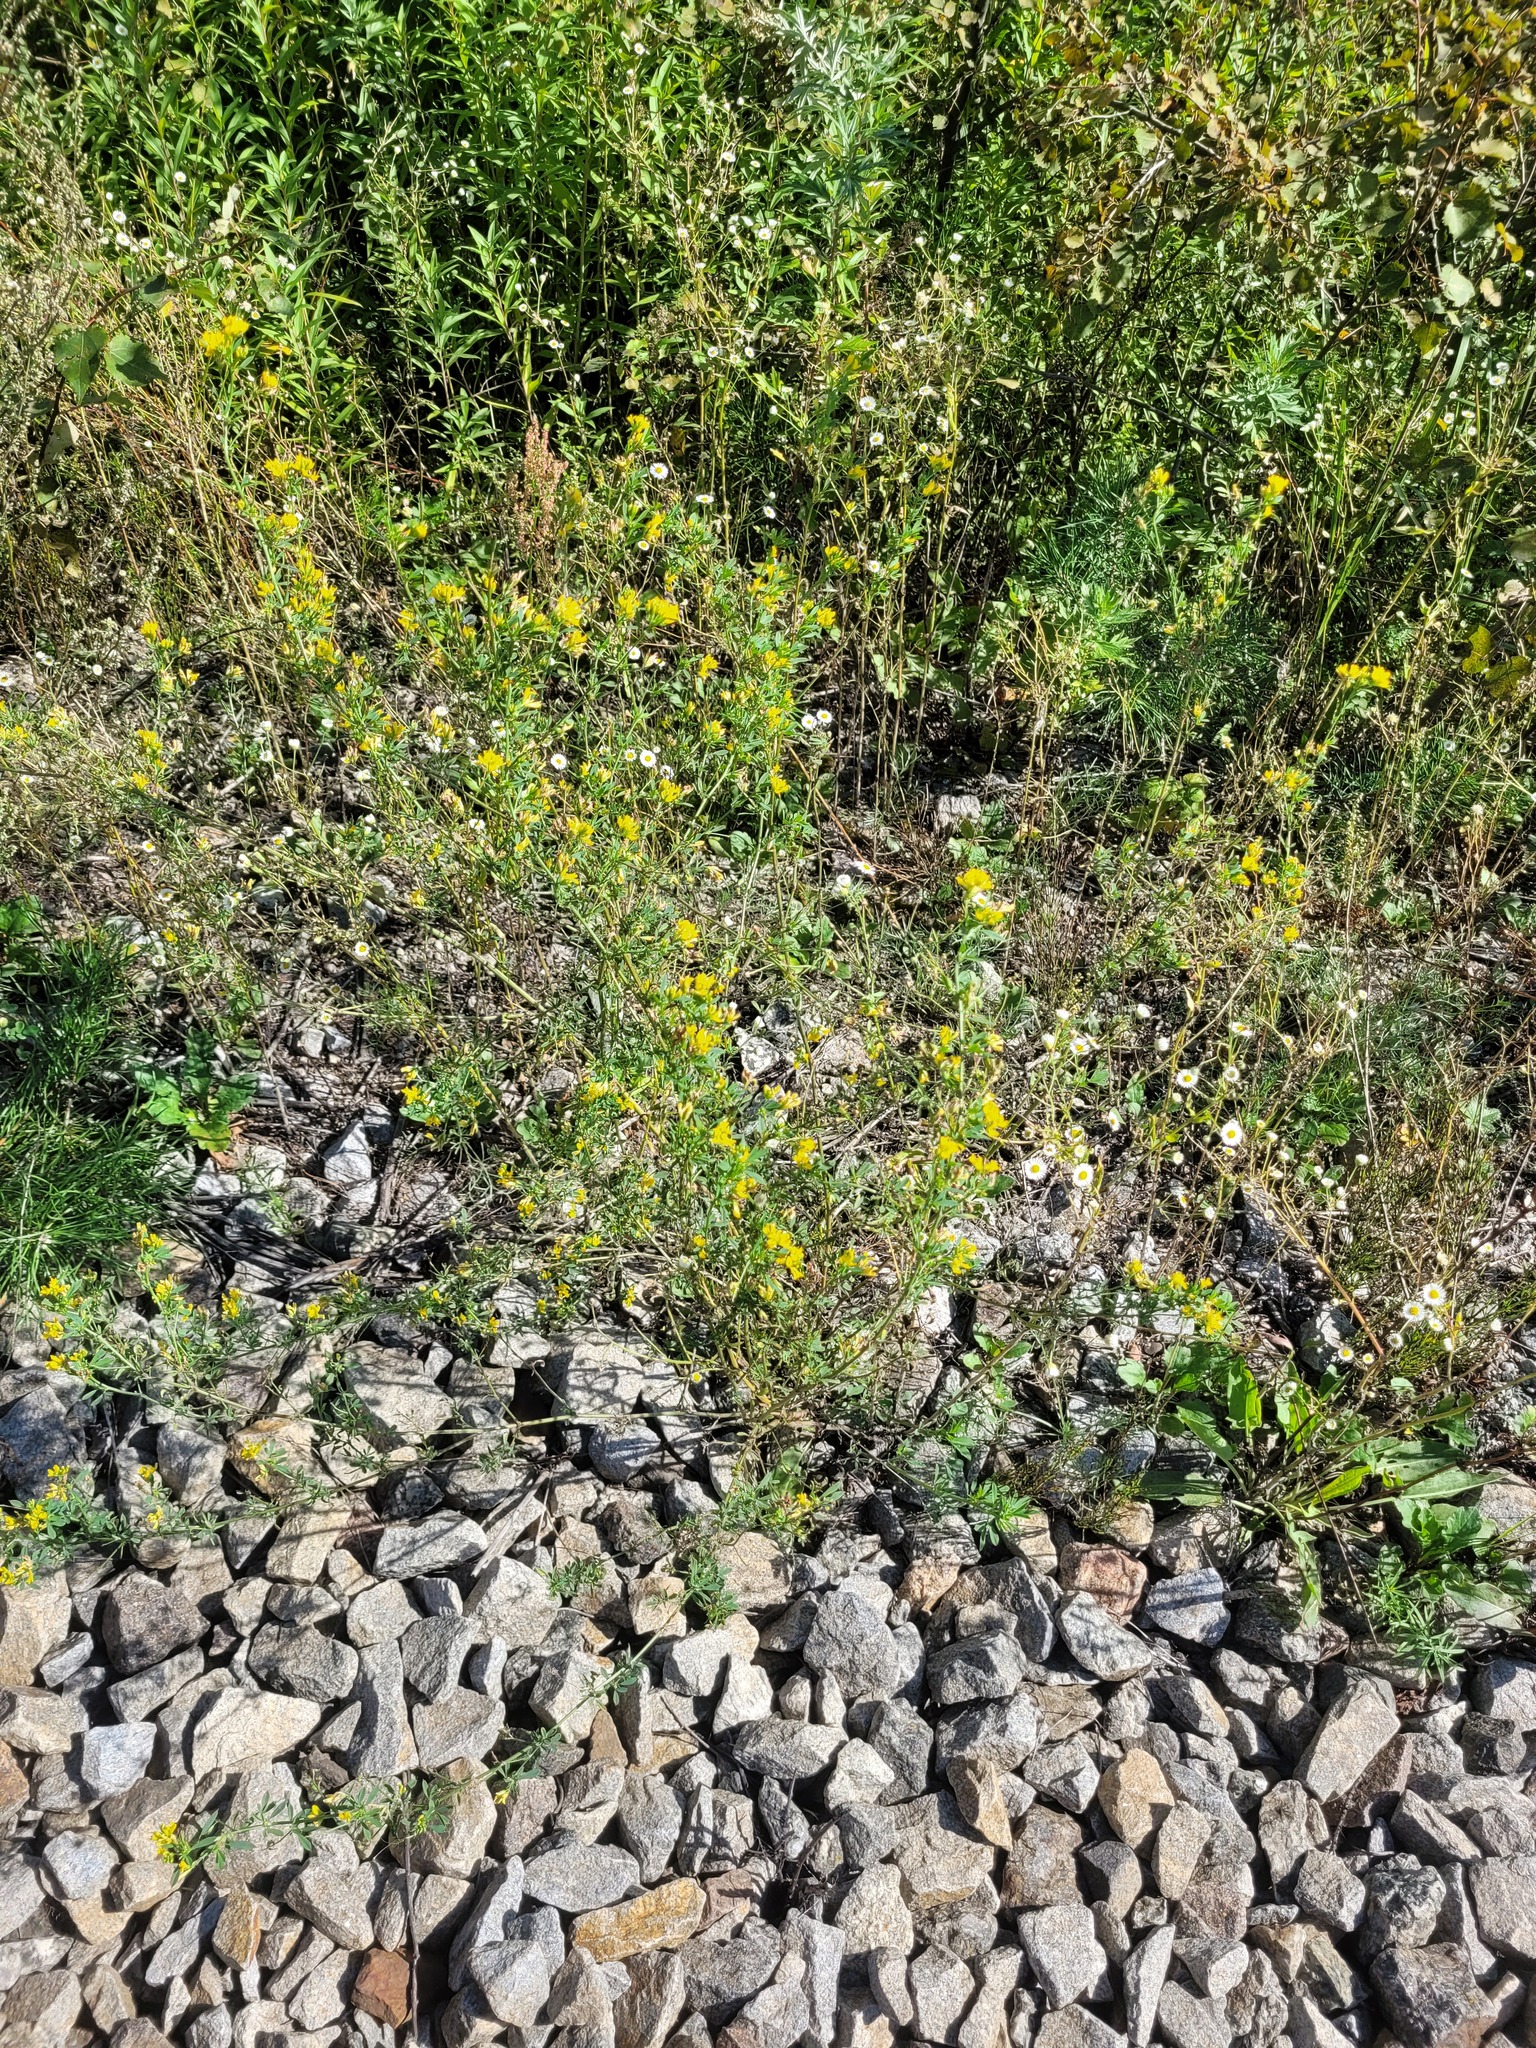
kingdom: Plantae
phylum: Tracheophyta
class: Magnoliopsida
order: Fabales
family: Fabaceae
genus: Medicago
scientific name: Medicago falcata
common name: Sickle medick
